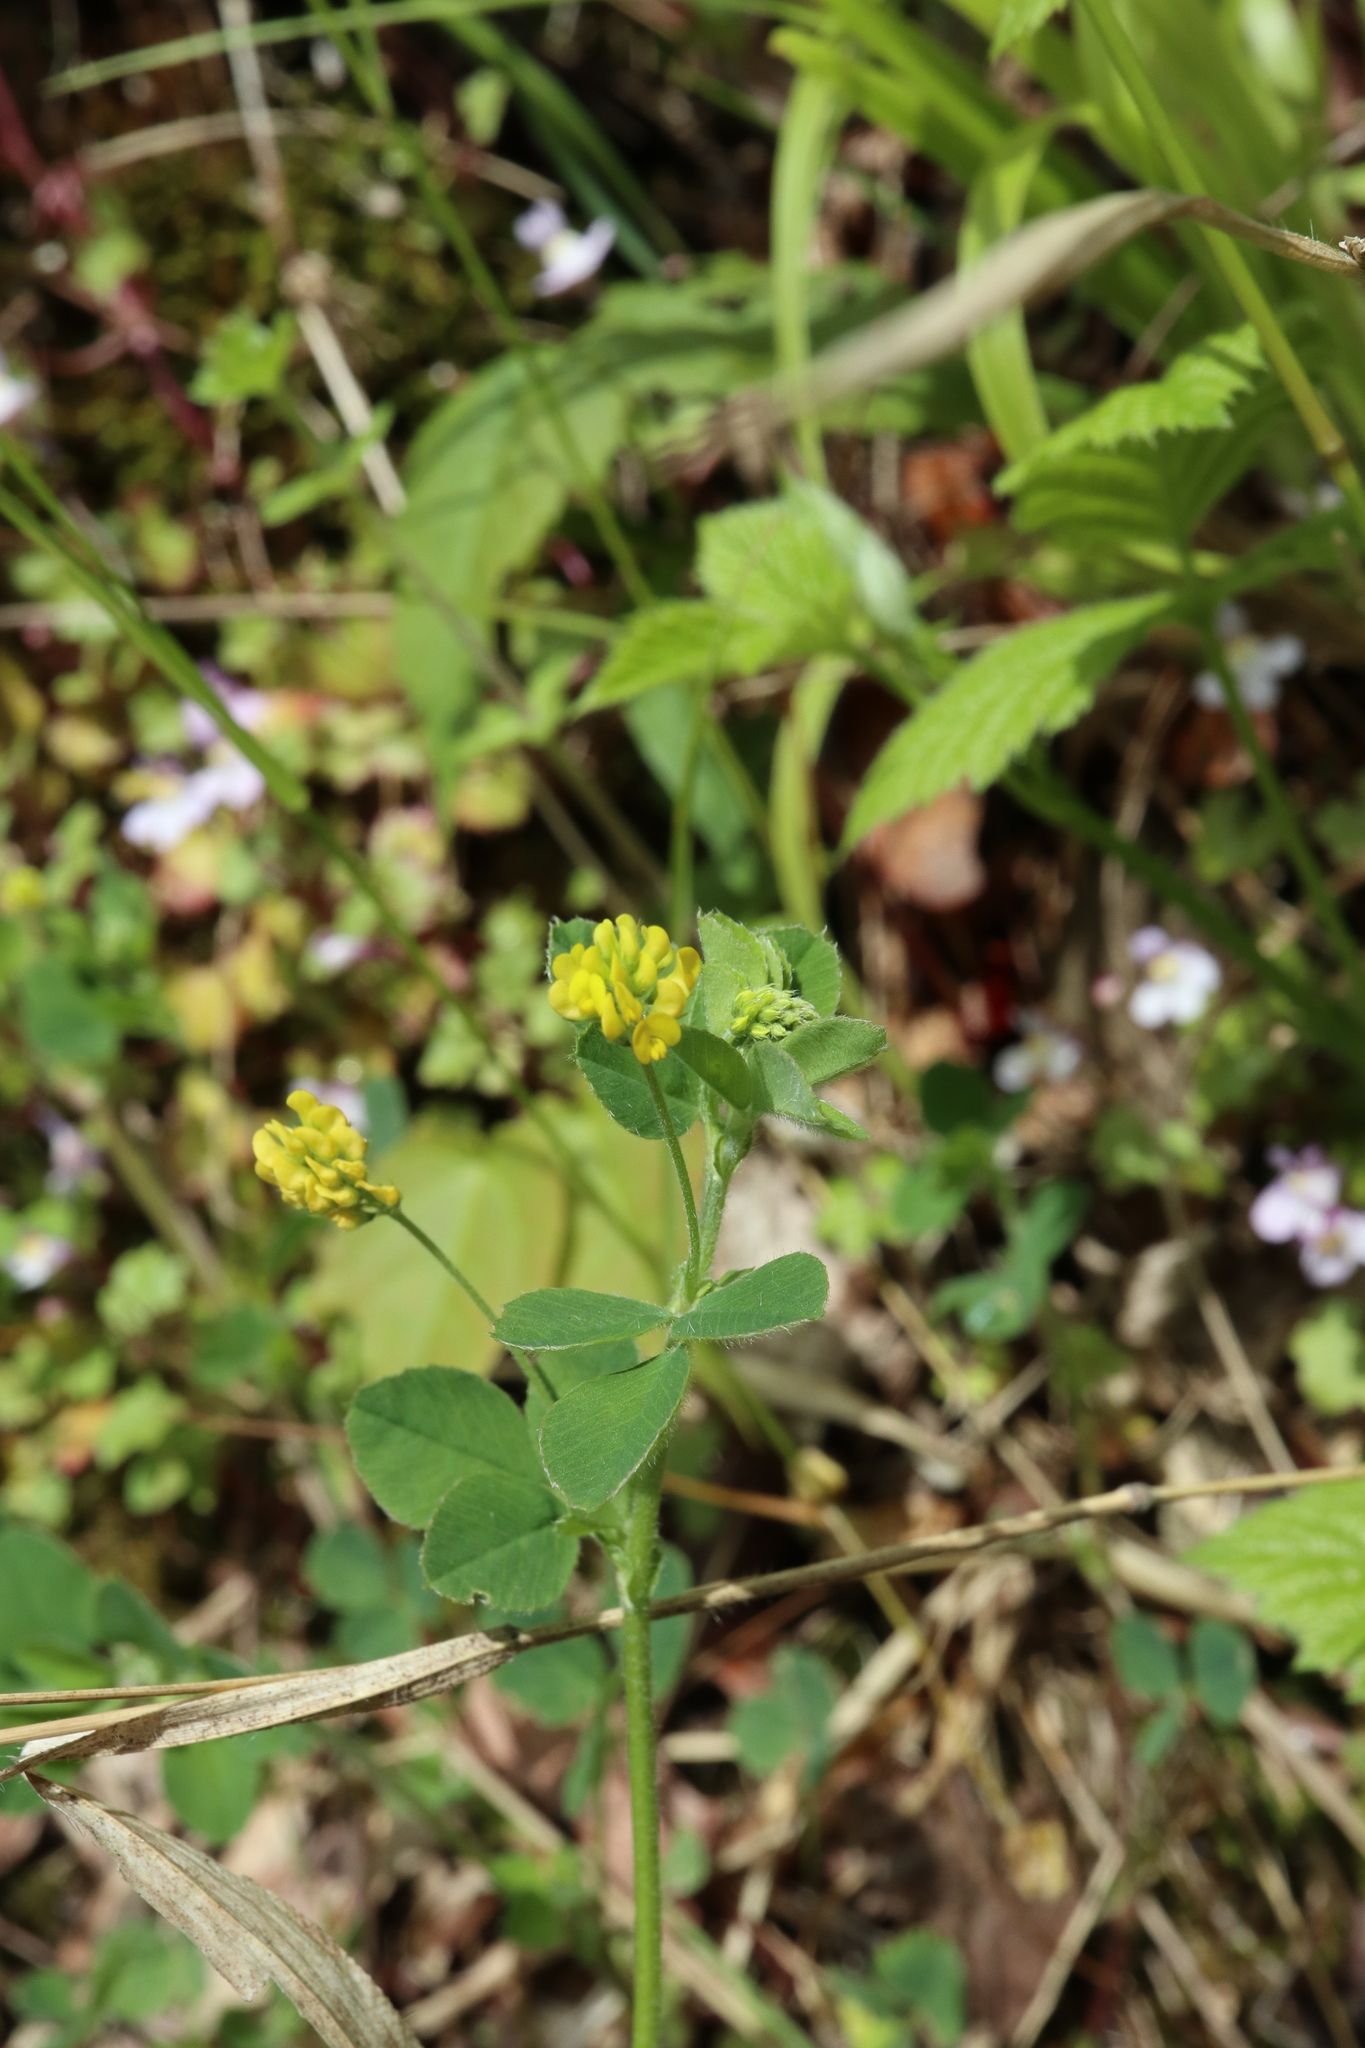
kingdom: Plantae
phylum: Tracheophyta
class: Magnoliopsida
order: Fabales
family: Fabaceae
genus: Medicago
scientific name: Medicago lupulina
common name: Black medick
